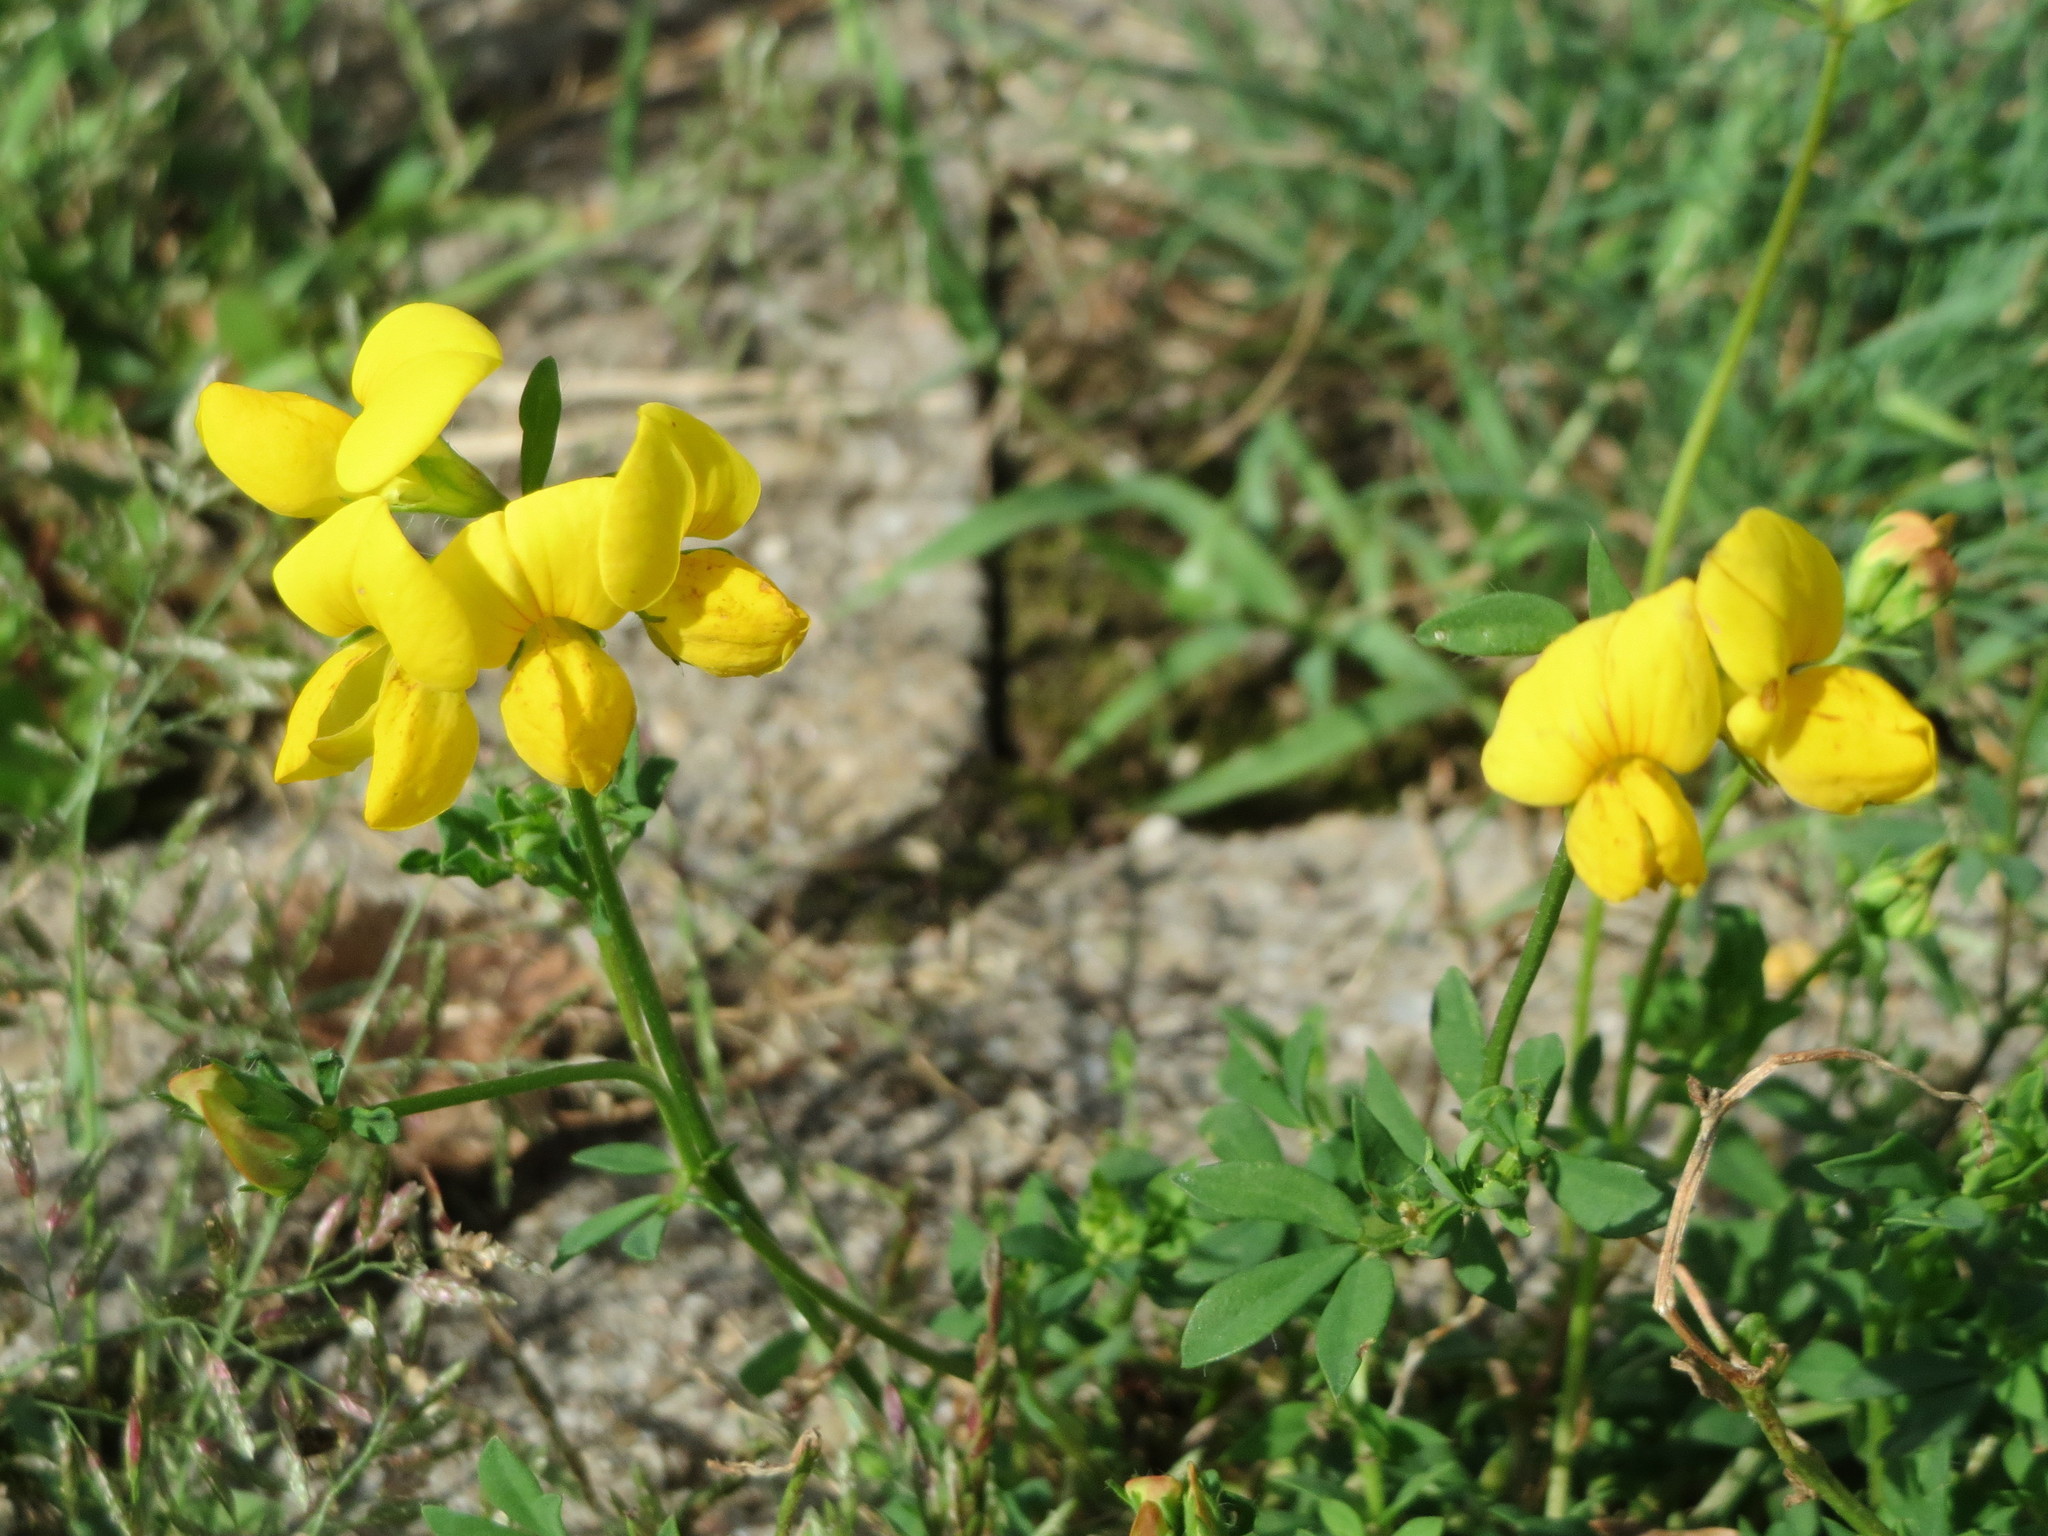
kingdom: Plantae
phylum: Tracheophyta
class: Magnoliopsida
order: Fabales
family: Fabaceae
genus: Lotus
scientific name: Lotus corniculatus
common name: Common bird's-foot-trefoil
